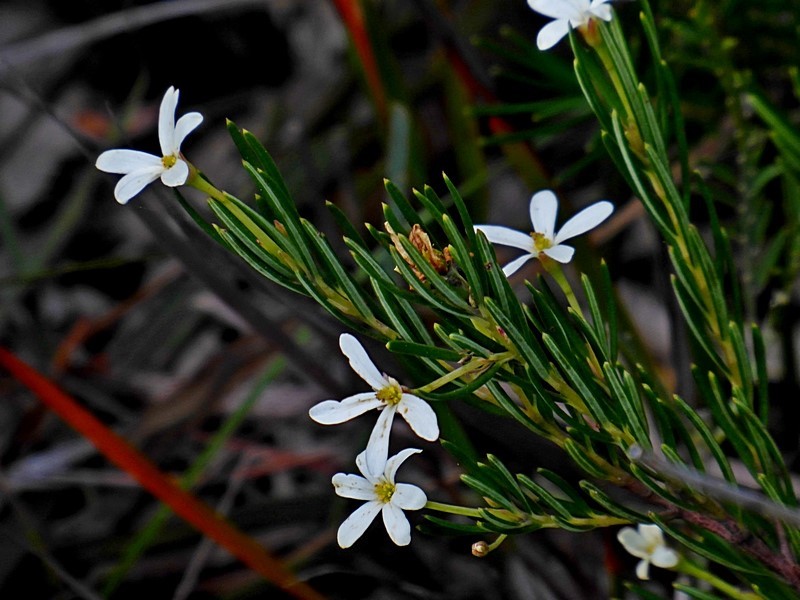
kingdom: Plantae
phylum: Tracheophyta
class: Magnoliopsida
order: Malpighiales
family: Euphorbiaceae
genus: Ricinocarpos
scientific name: Ricinocarpos pinifolius
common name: Weddingbush
